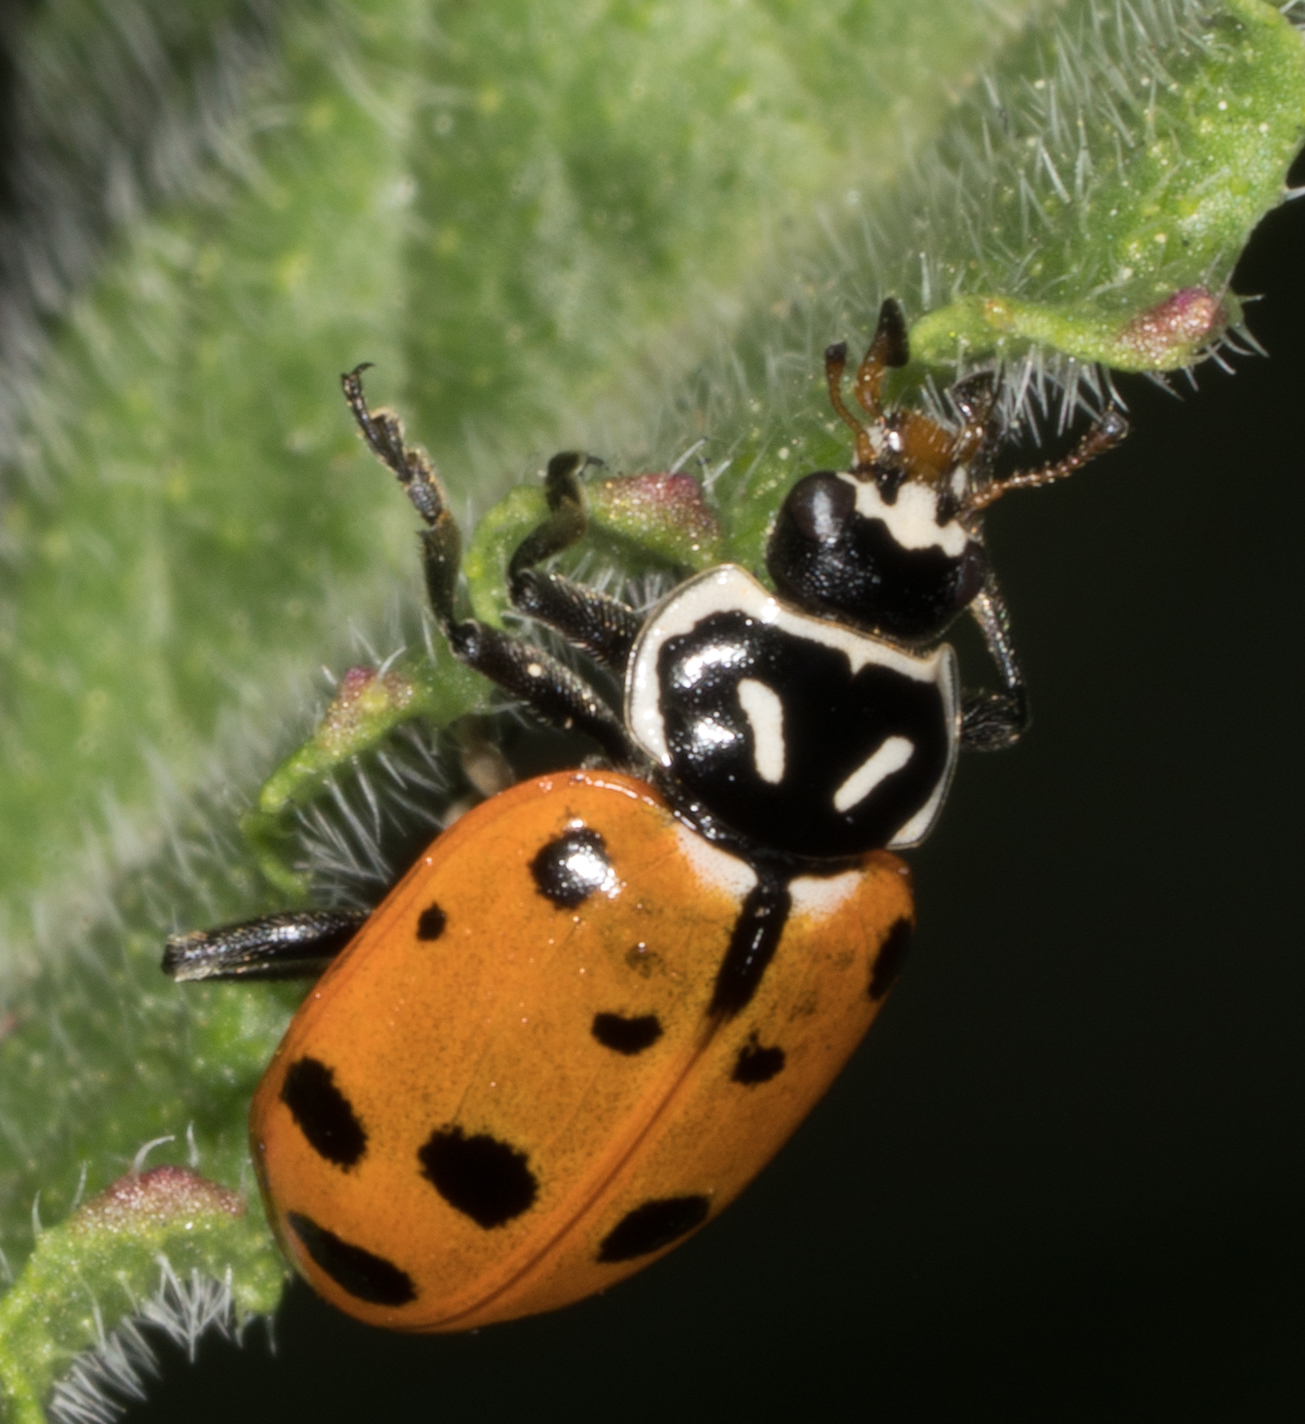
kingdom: Animalia
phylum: Arthropoda
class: Insecta
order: Coleoptera
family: Coccinellidae
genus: Hippodamia
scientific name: Hippodamia convergens
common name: Convergent lady beetle
